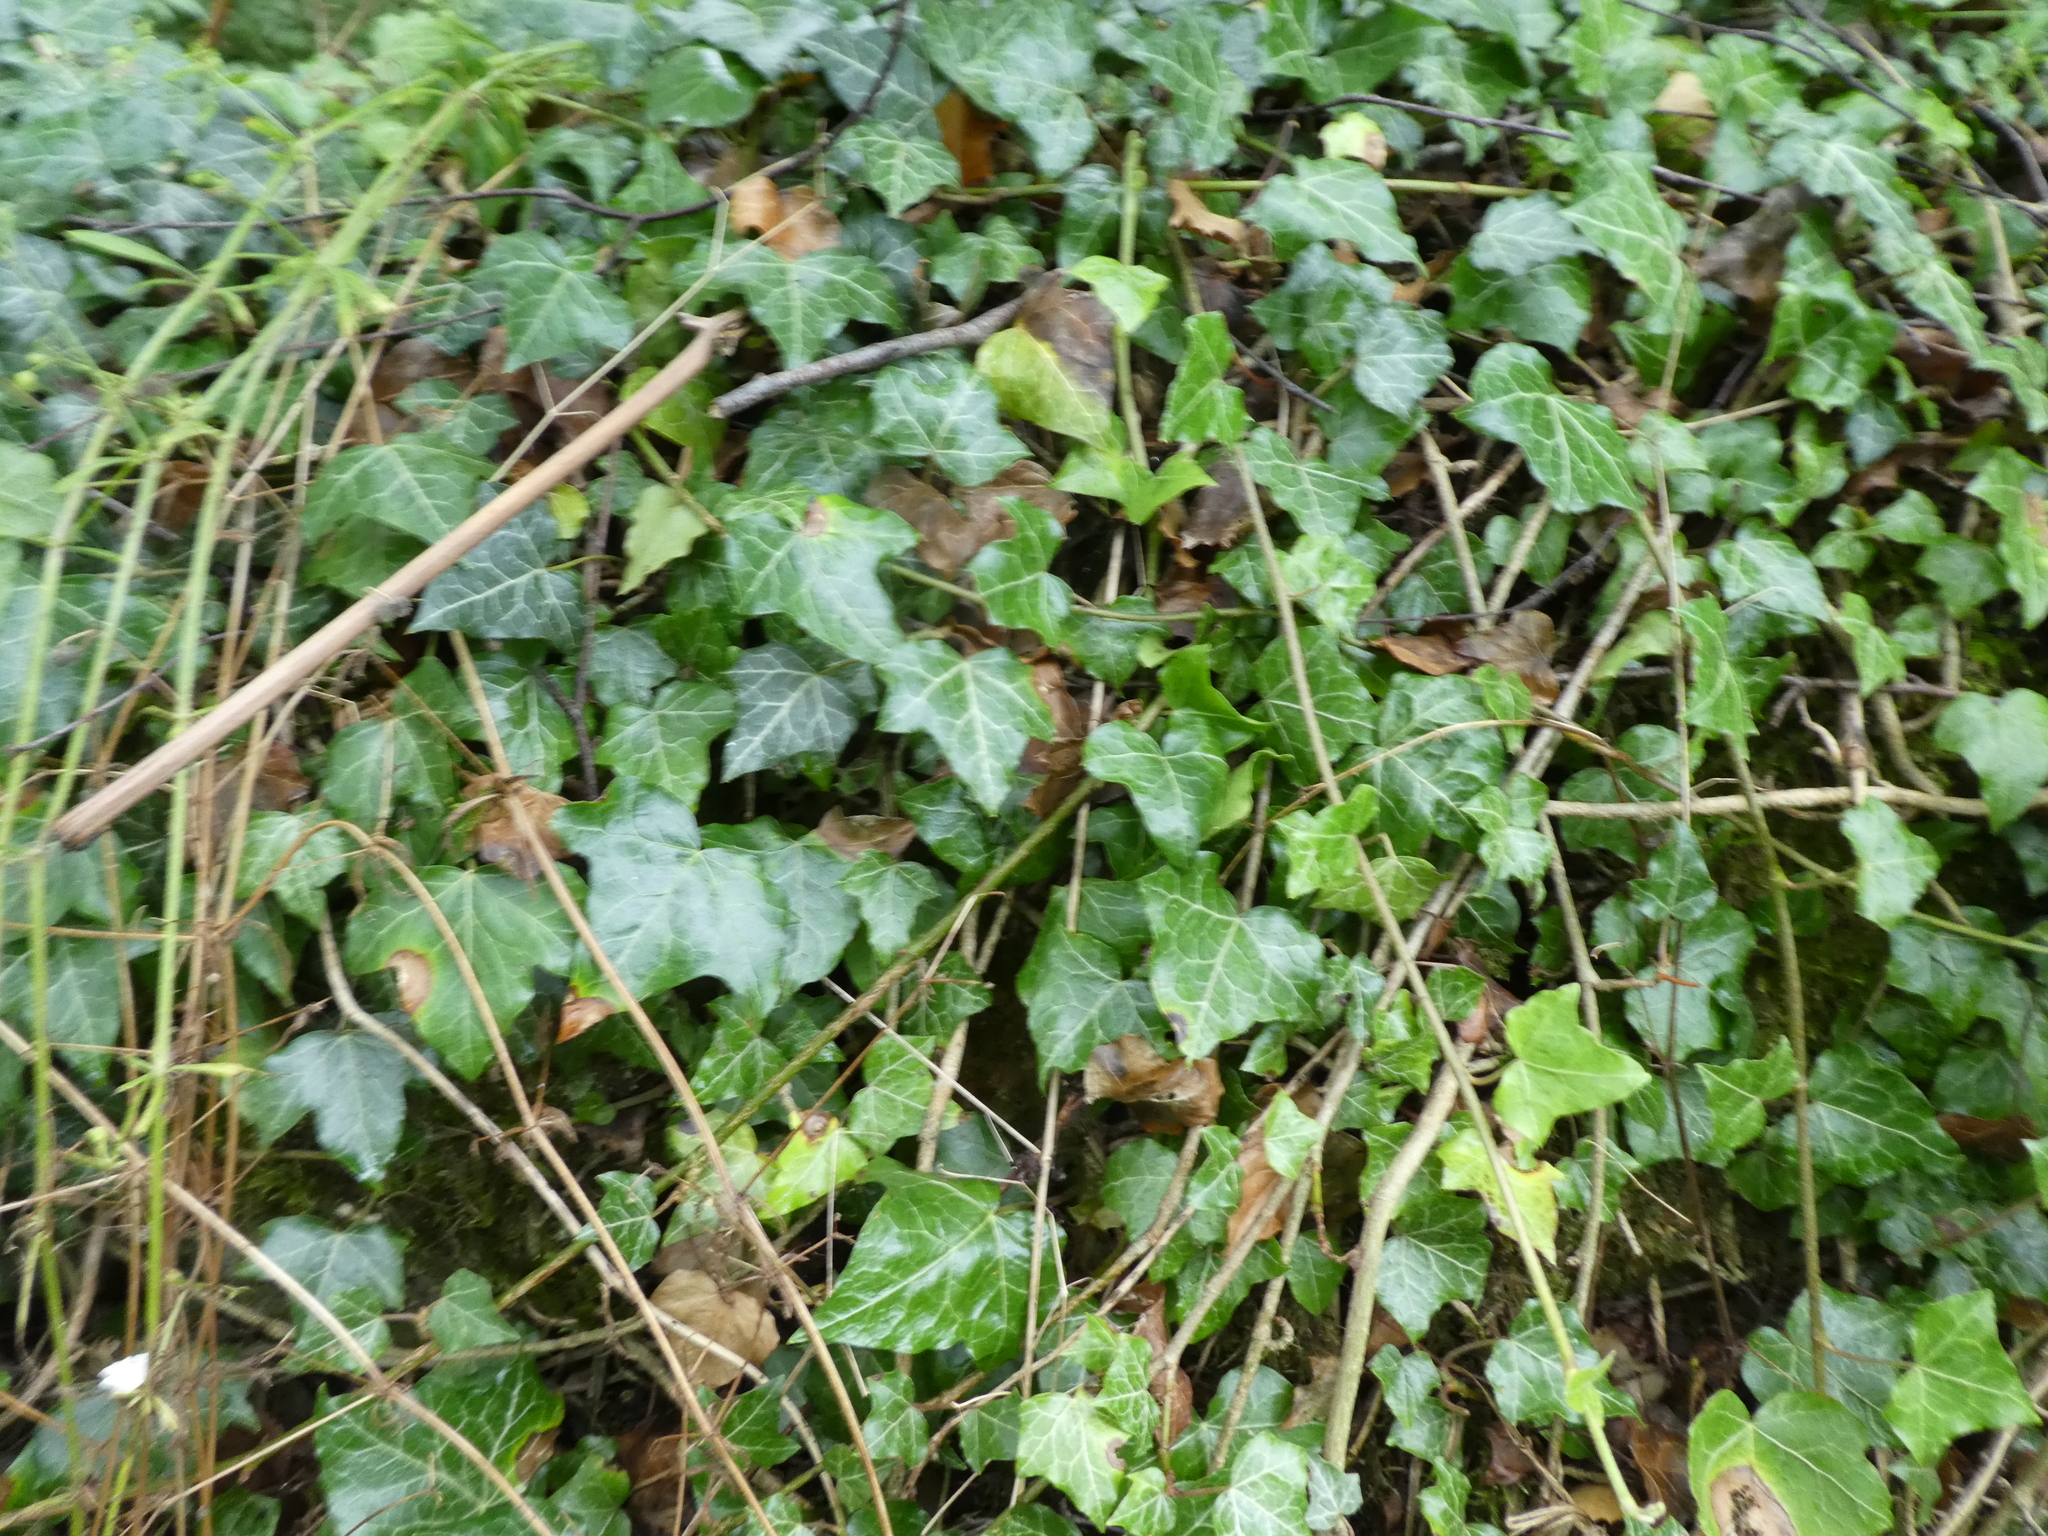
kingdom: Plantae
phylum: Tracheophyta
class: Magnoliopsida
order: Apiales
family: Araliaceae
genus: Hedera
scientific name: Hedera helix
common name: Ivy
